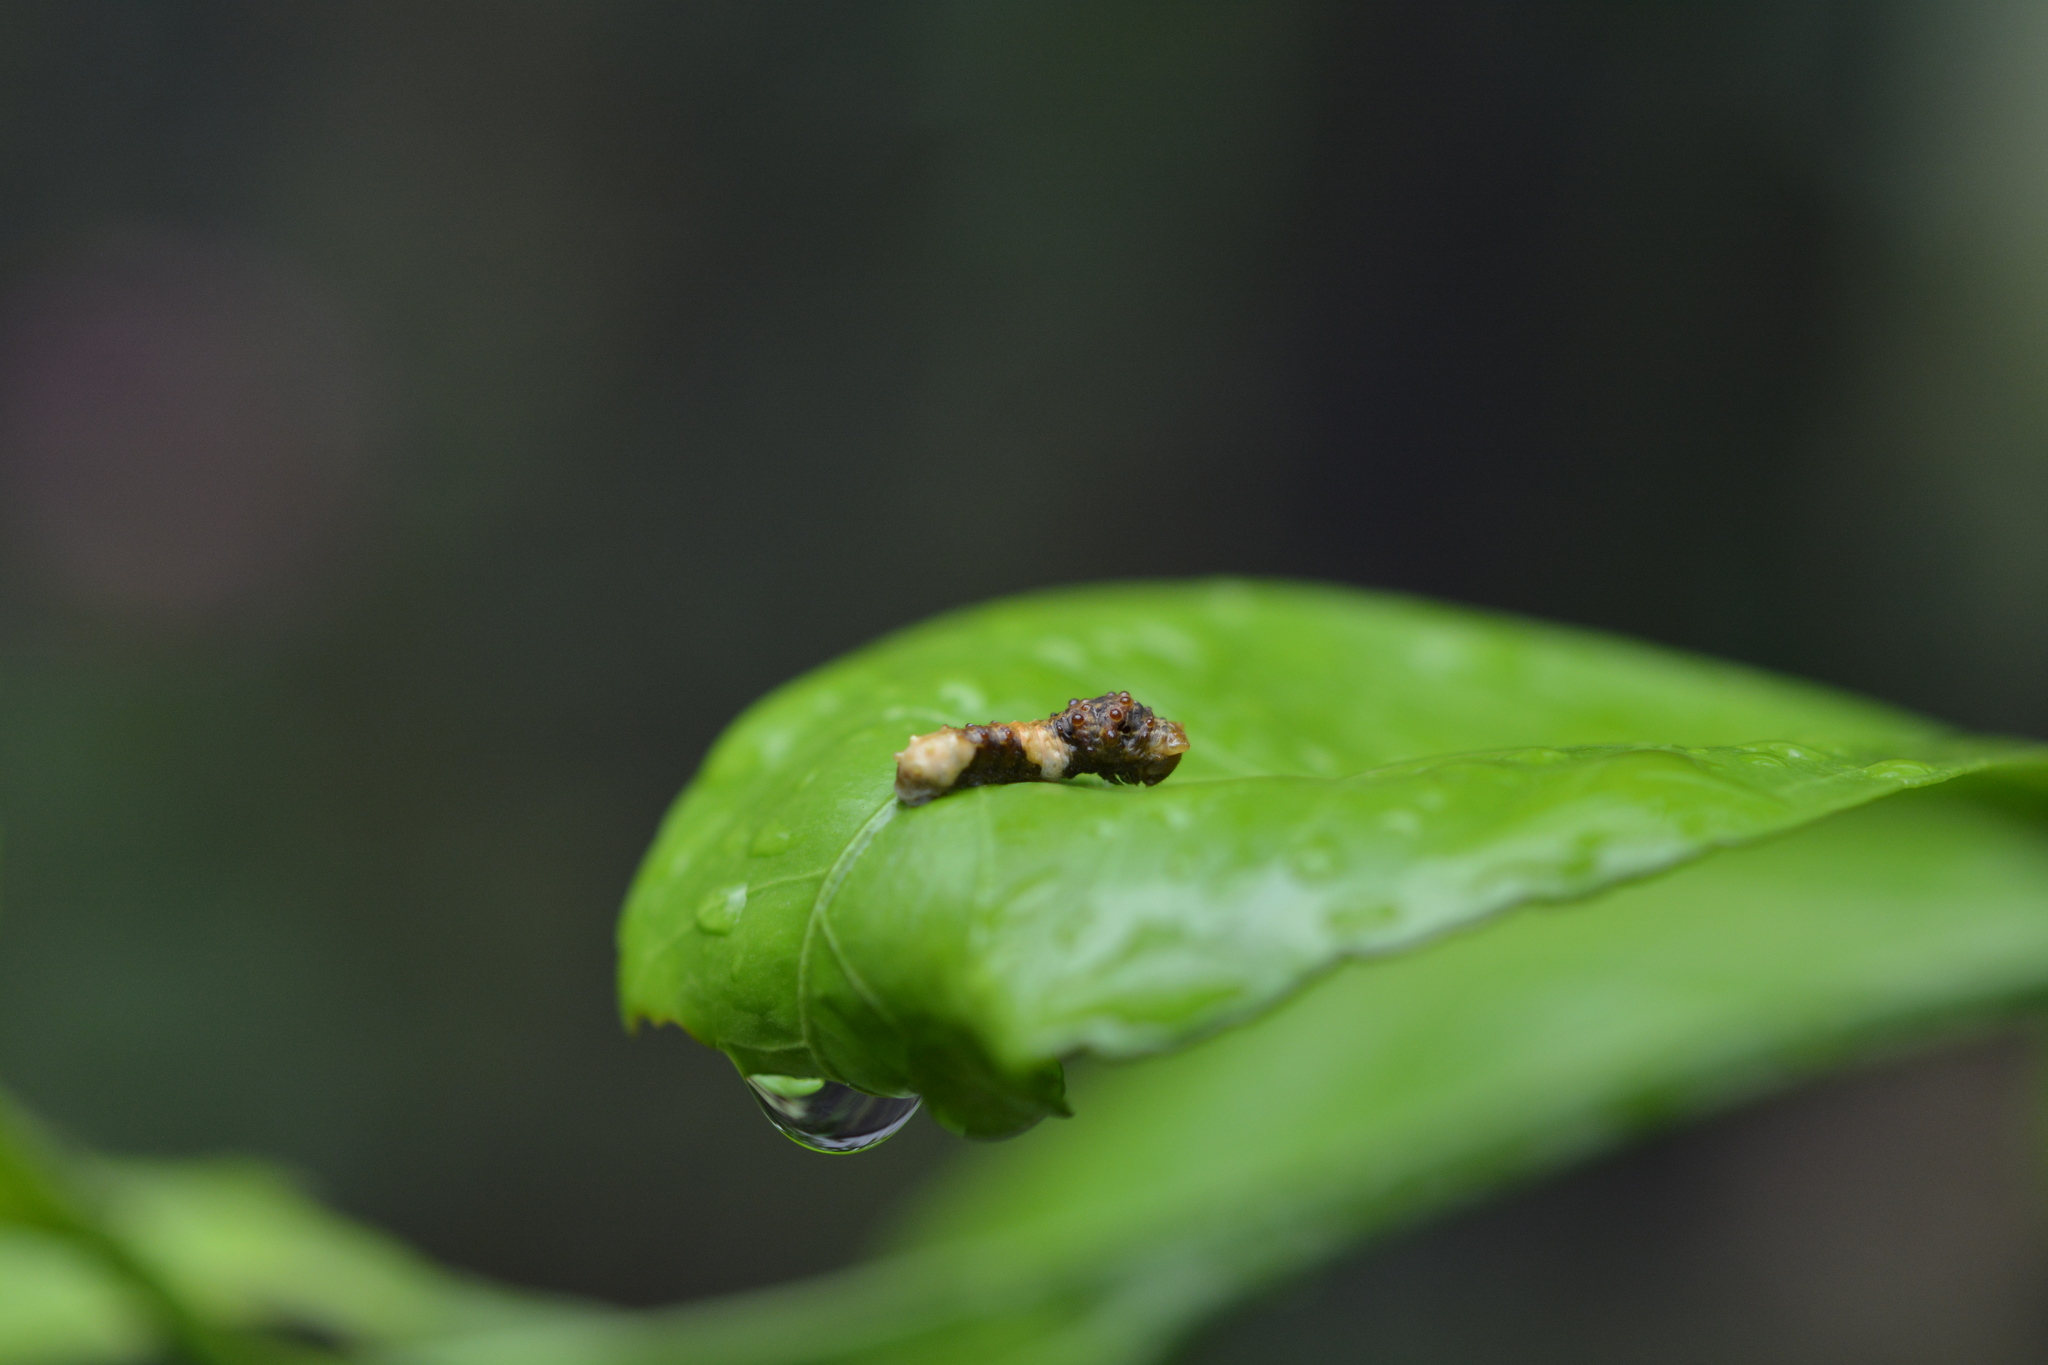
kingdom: Animalia
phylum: Arthropoda
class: Insecta
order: Lepidoptera
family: Papilionidae
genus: Papilio
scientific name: Papilio cresphontes
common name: Giant swallowtail
